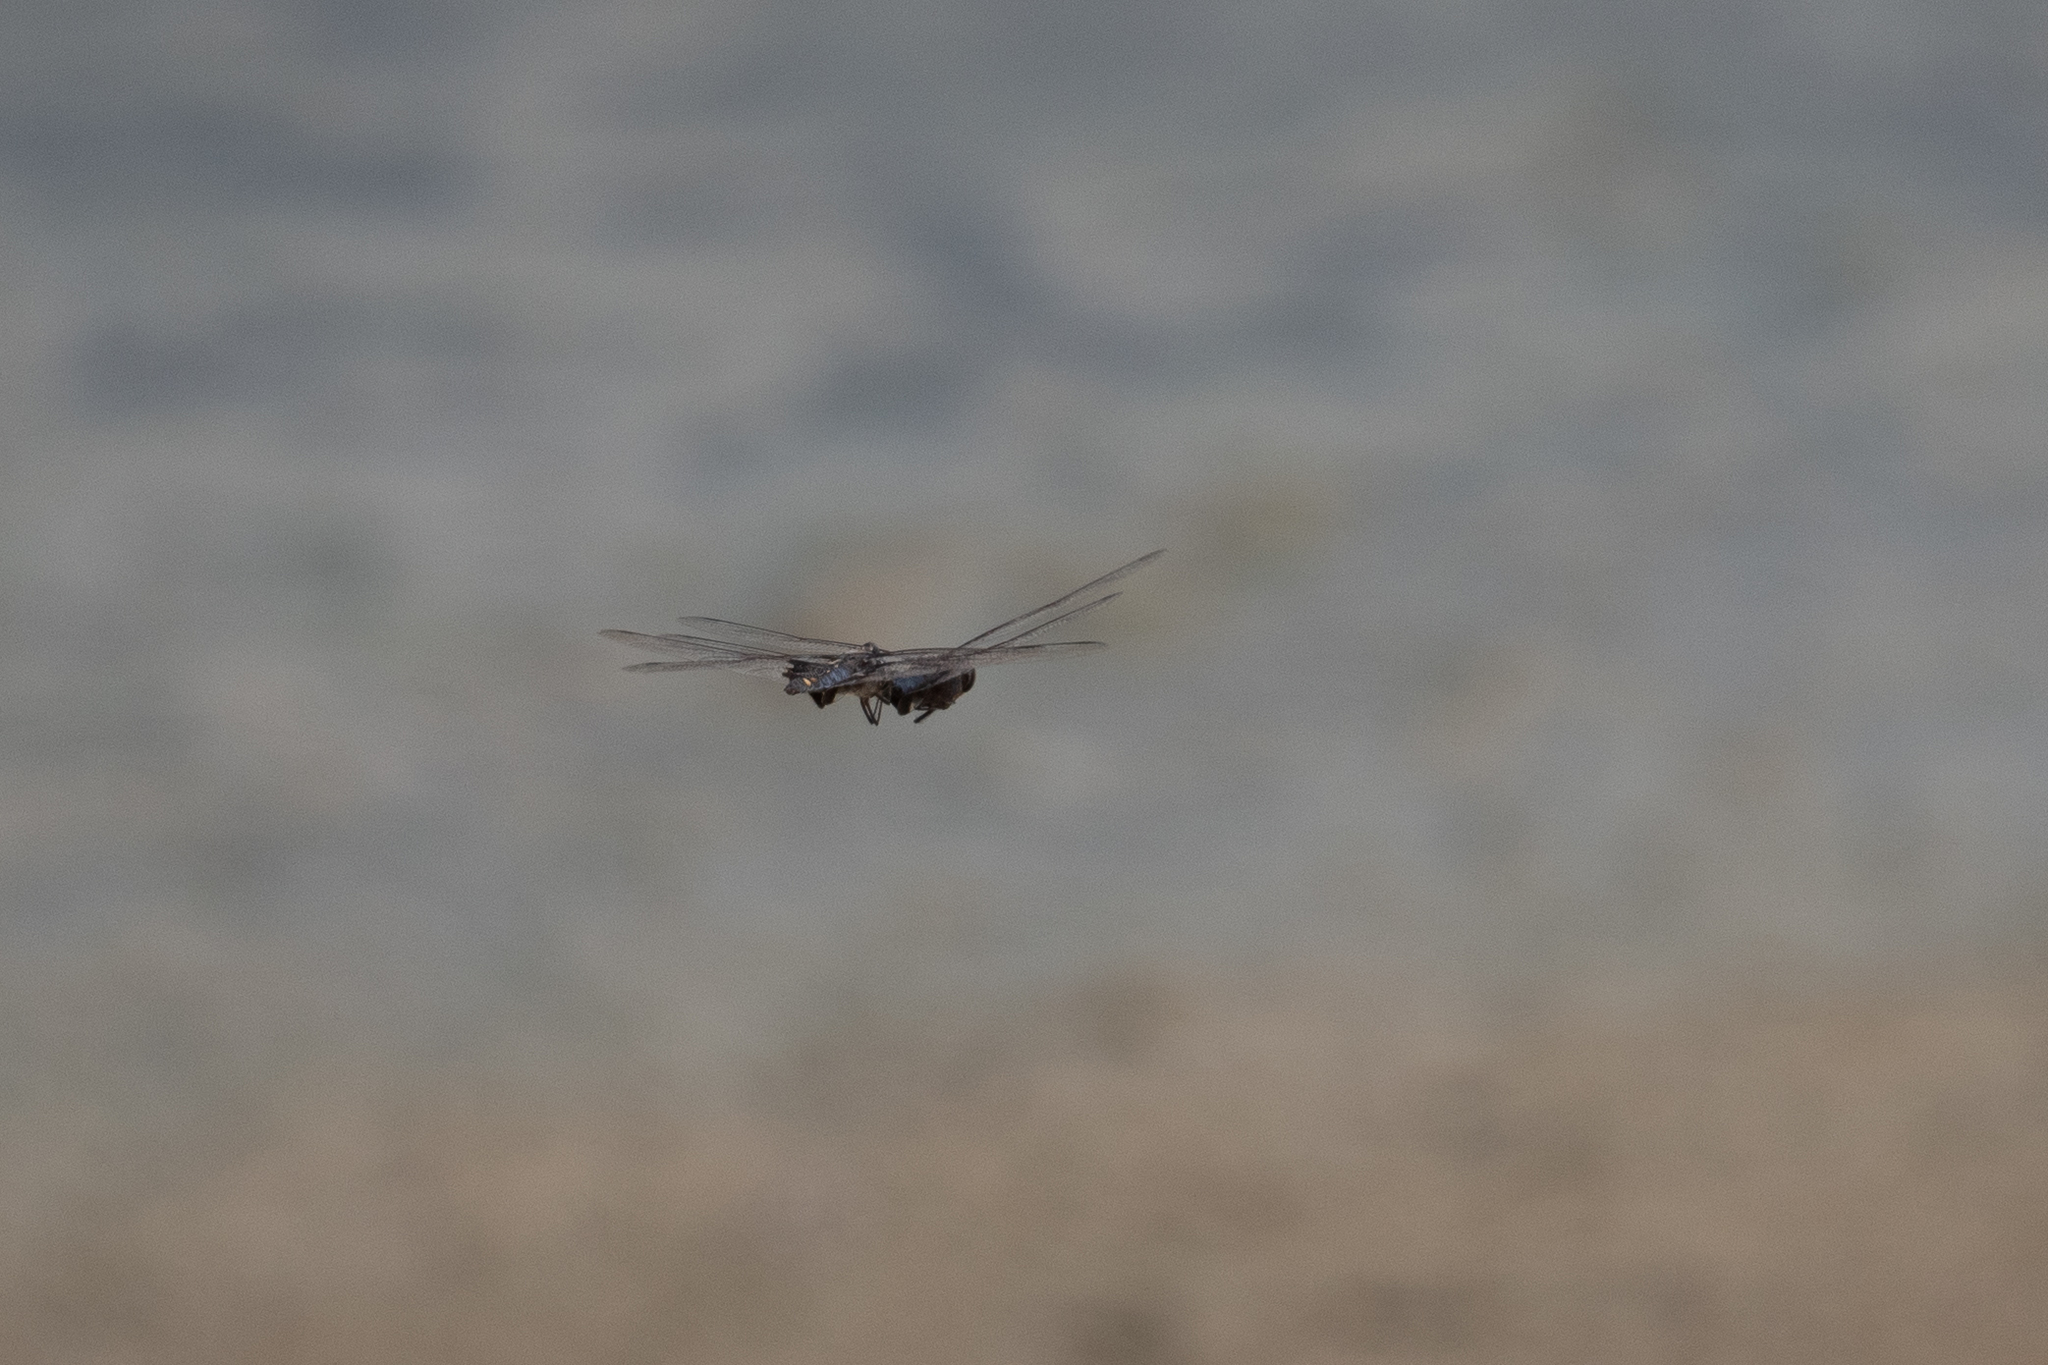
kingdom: Animalia
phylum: Arthropoda
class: Insecta
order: Odonata
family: Libellulidae
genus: Tramea
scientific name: Tramea lacerata
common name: Black saddlebags
